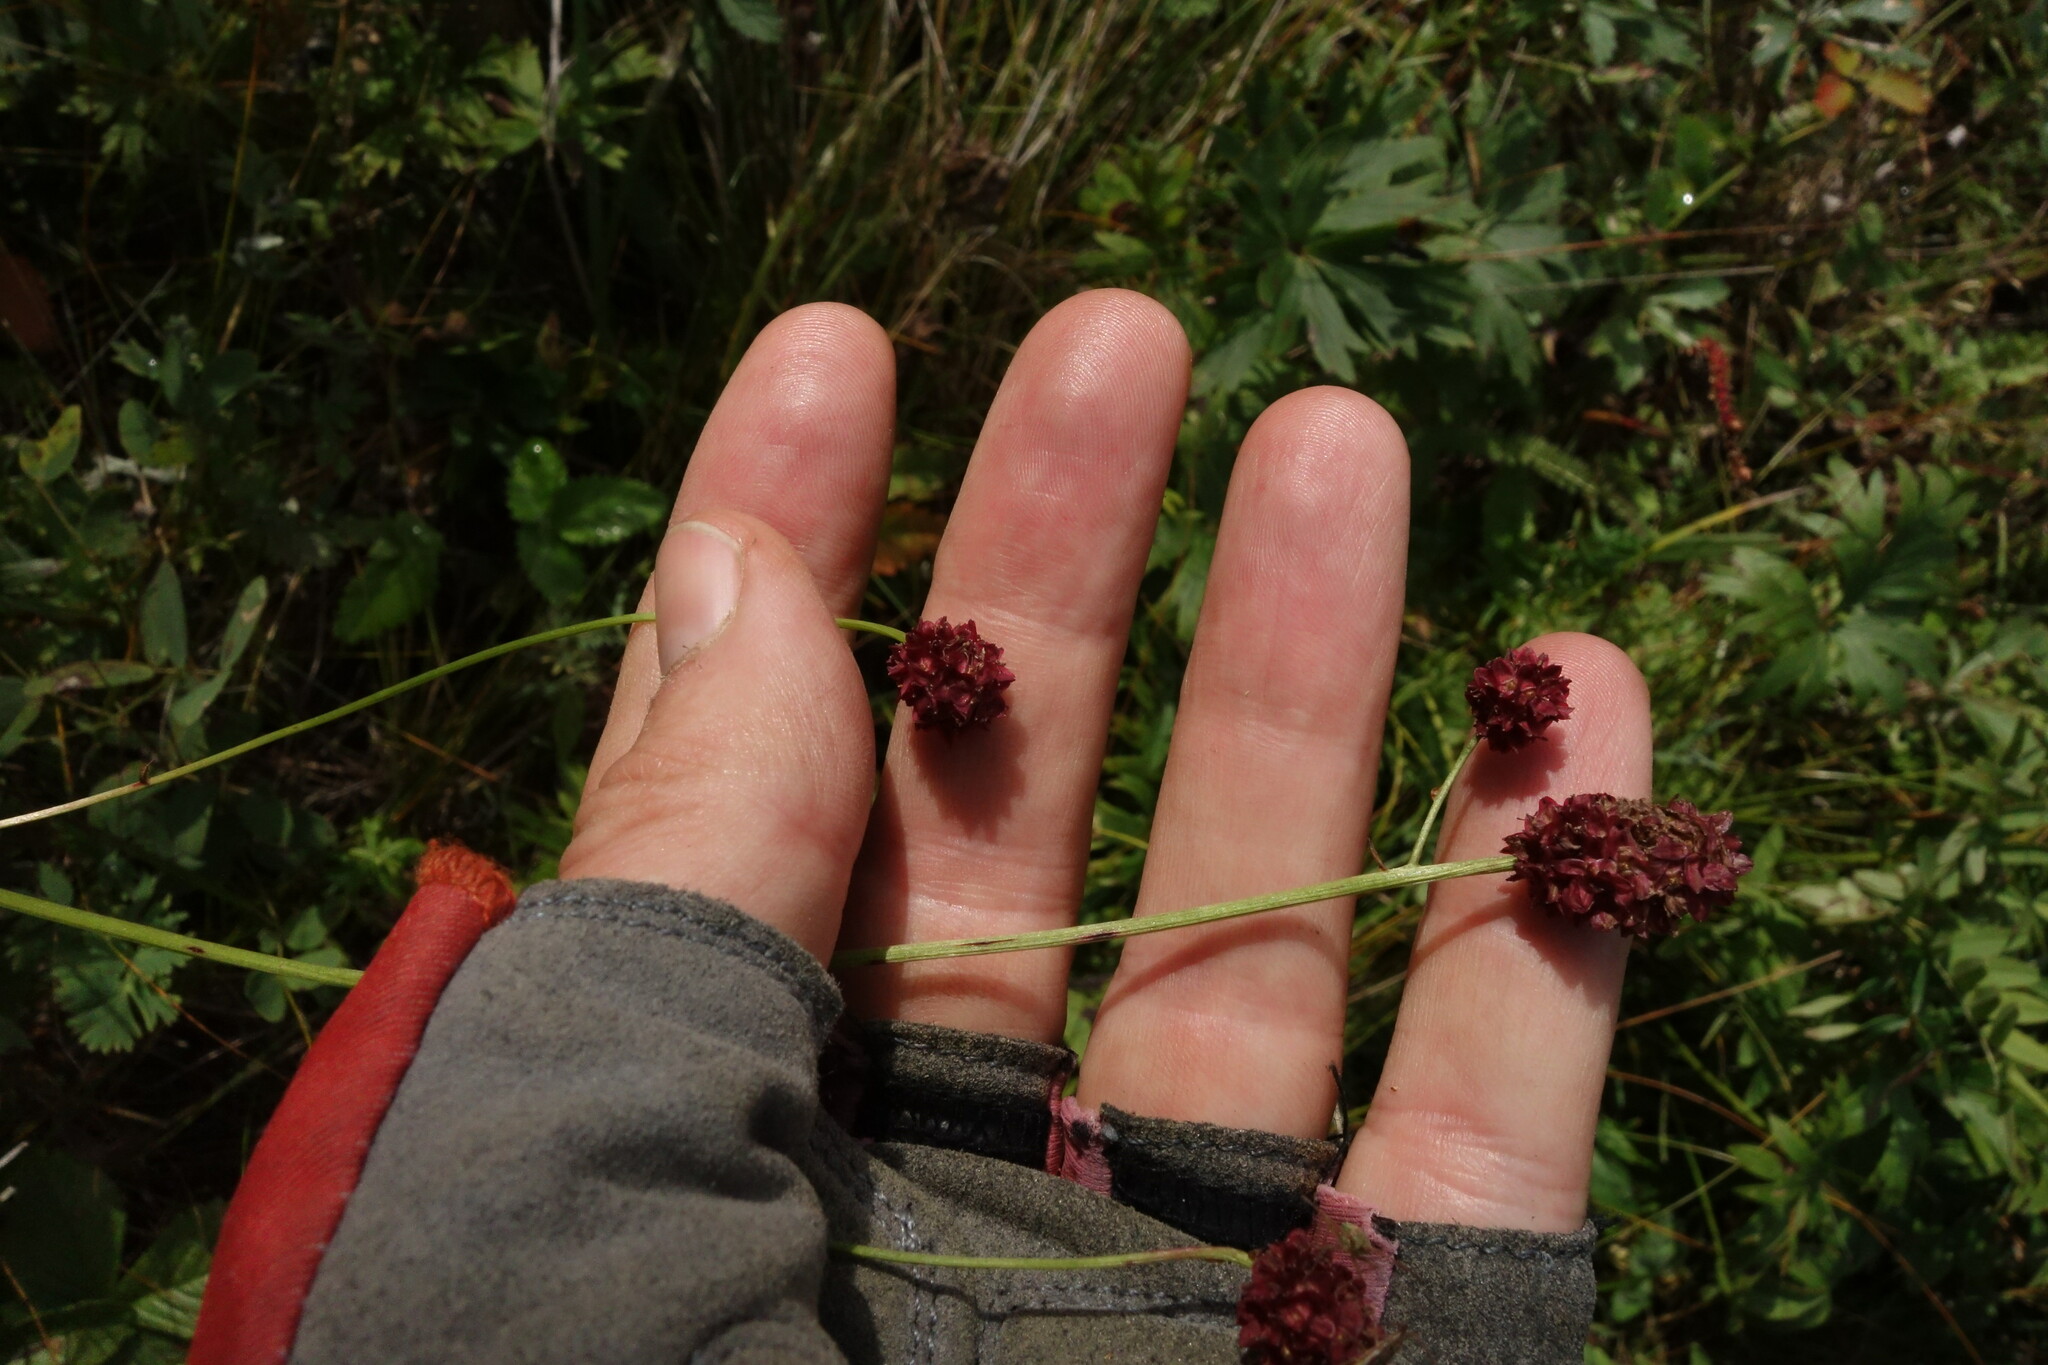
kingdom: Plantae
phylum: Tracheophyta
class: Magnoliopsida
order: Rosales
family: Rosaceae
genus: Sanguisorba
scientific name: Sanguisorba officinalis
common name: Great burnet
